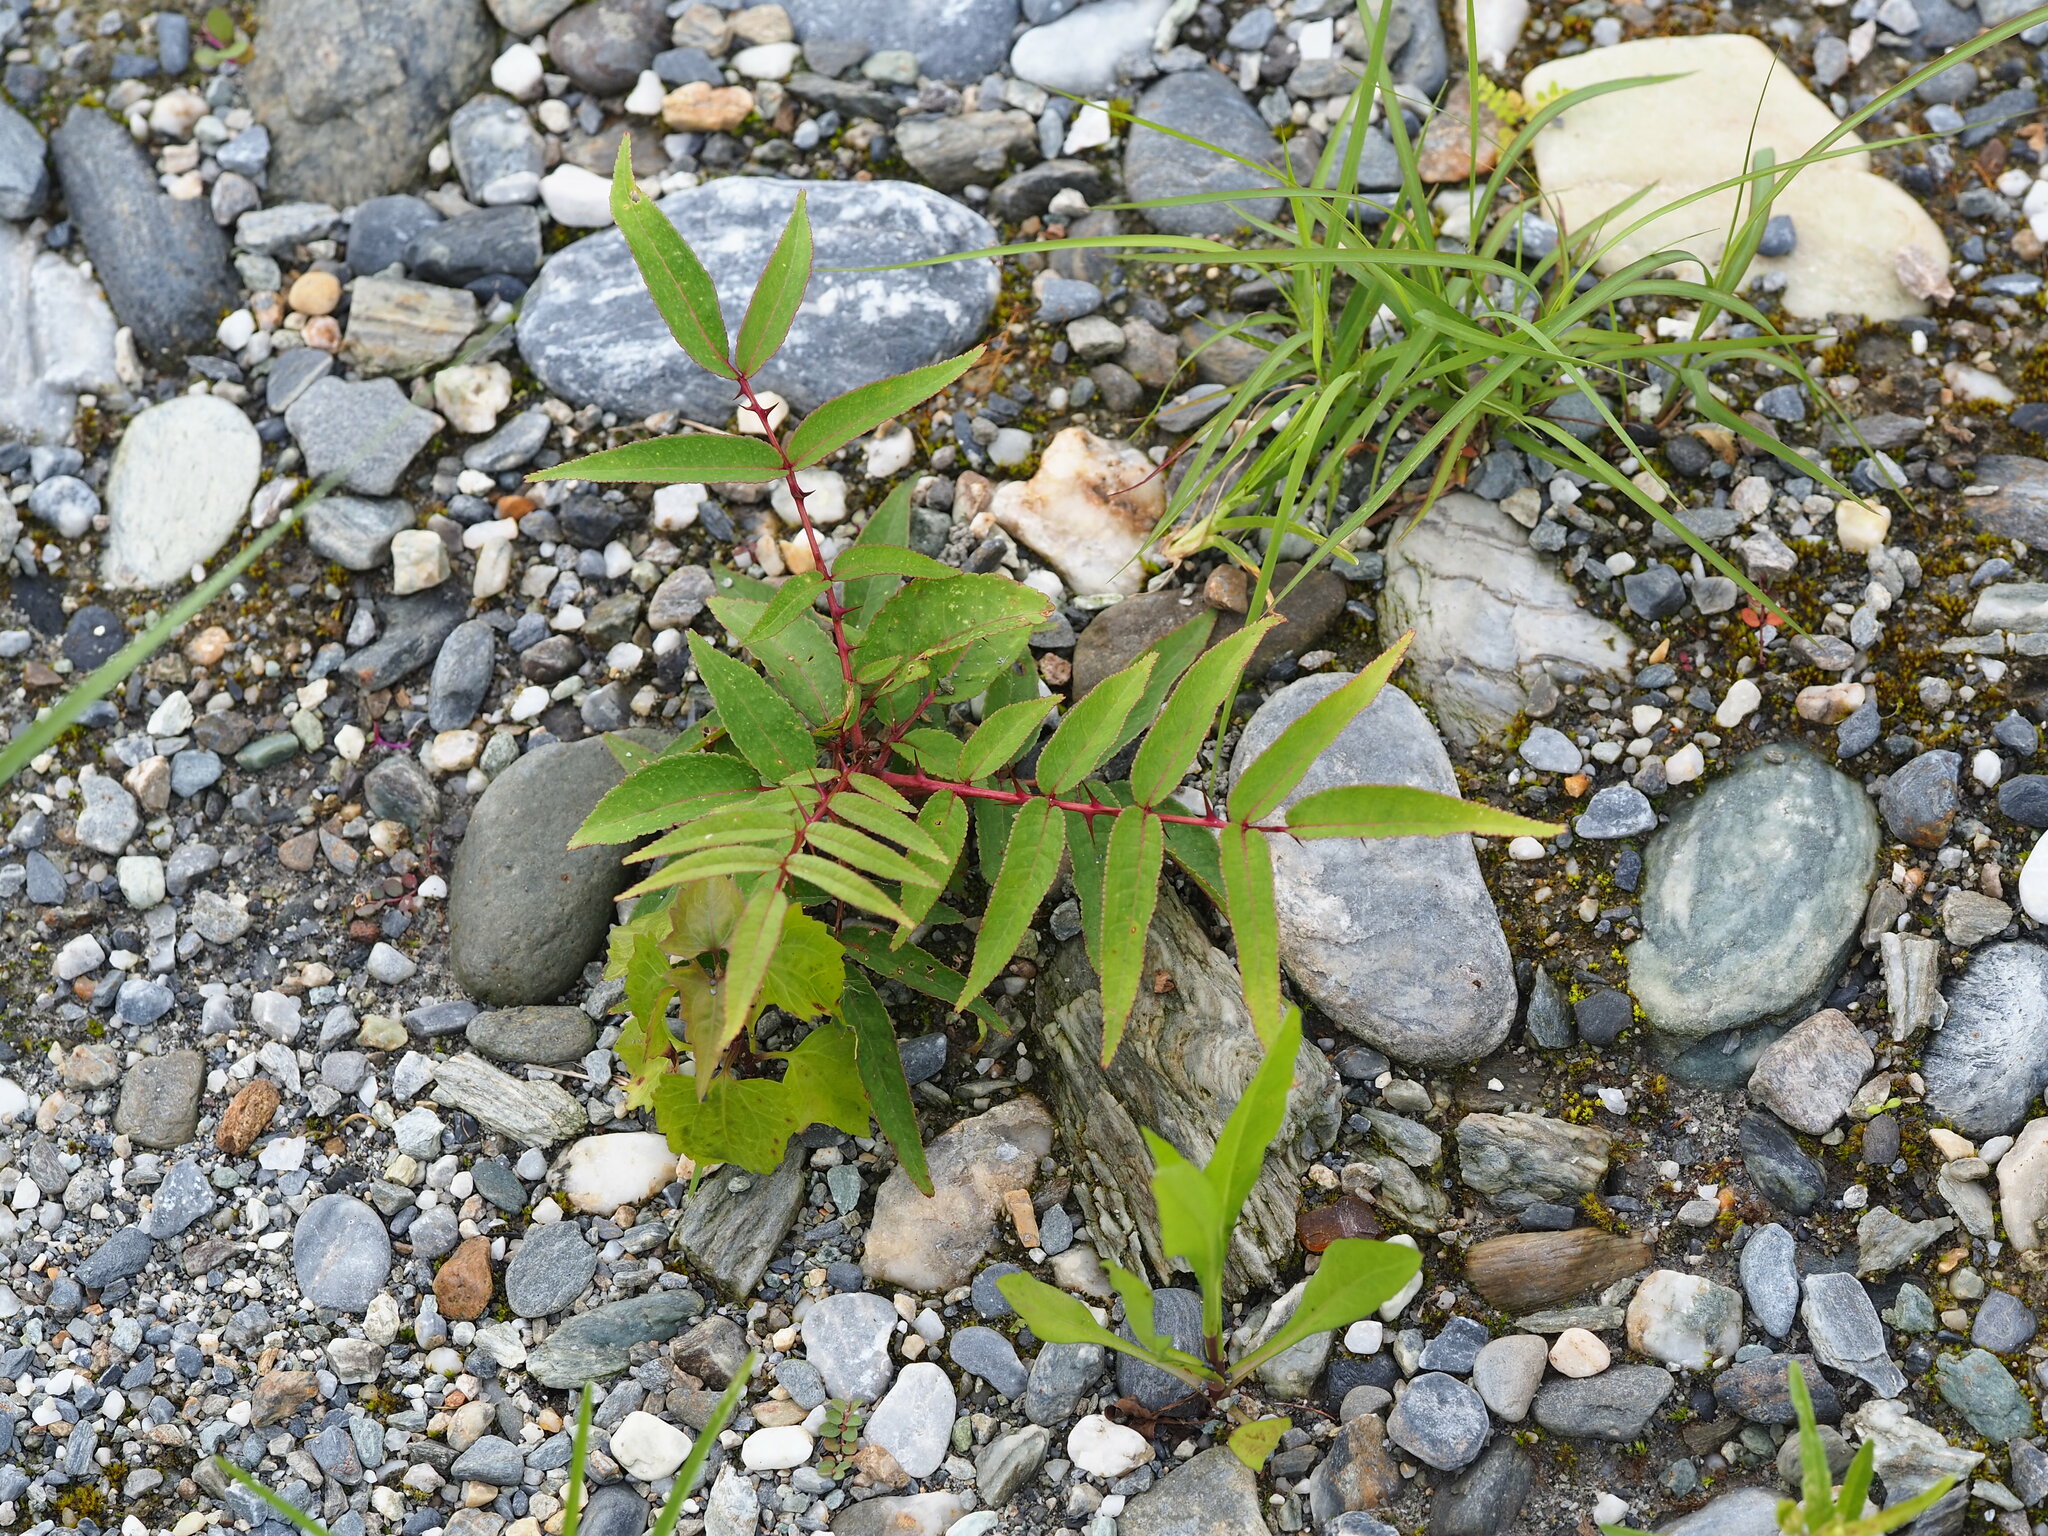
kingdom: Plantae
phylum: Tracheophyta
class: Magnoliopsida
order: Sapindales
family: Rutaceae
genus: Zanthoxylum
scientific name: Zanthoxylum ailanthoides
